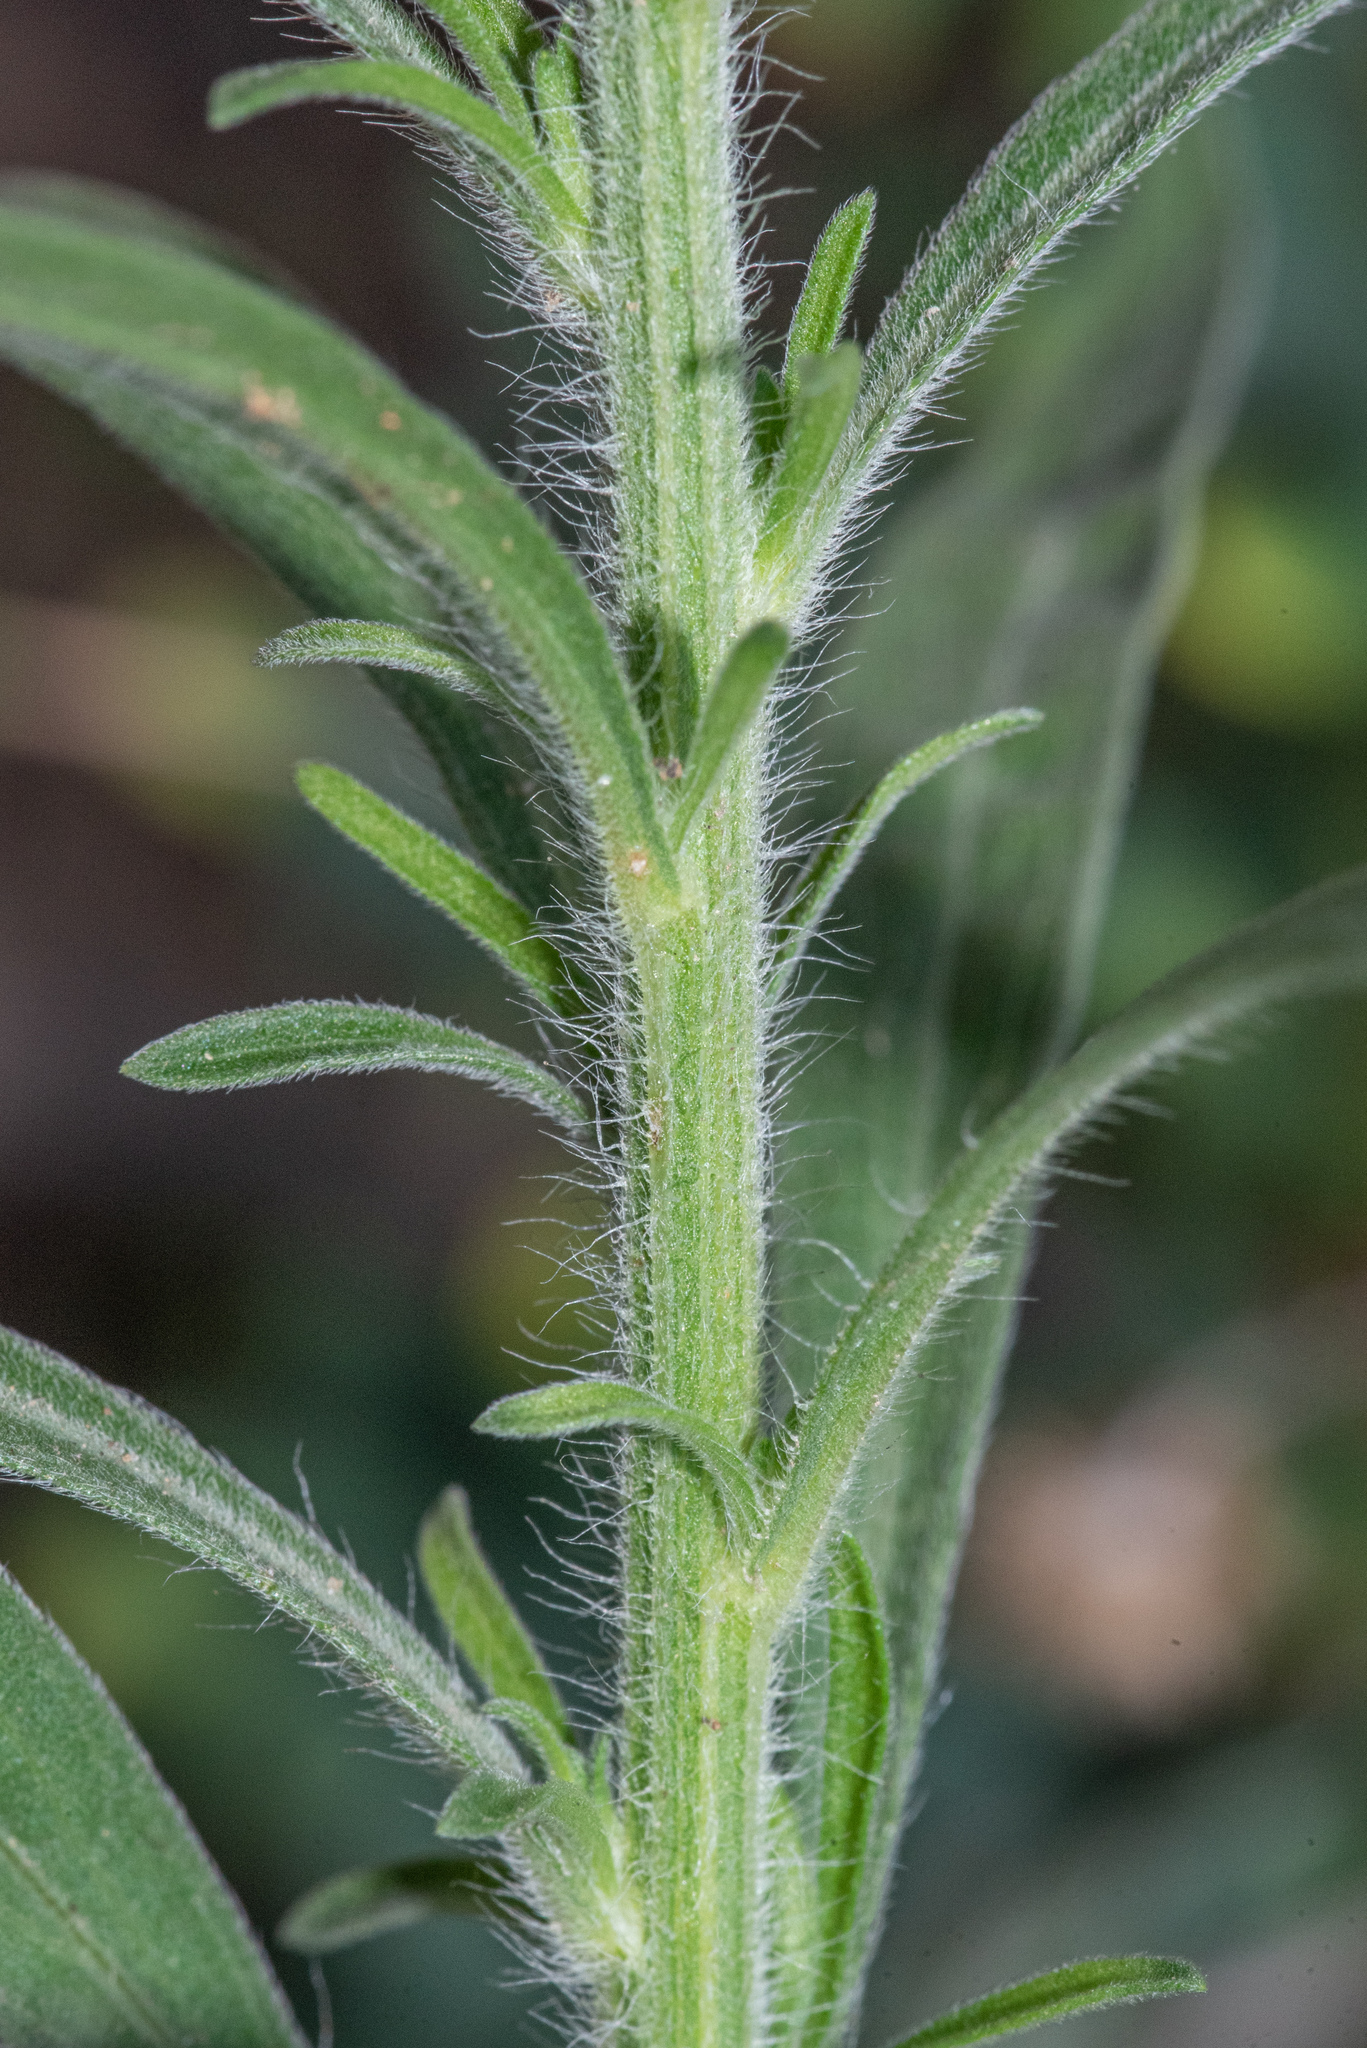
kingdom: Plantae
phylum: Tracheophyta
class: Magnoliopsida
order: Asterales
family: Asteraceae
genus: Erigeron
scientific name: Erigeron sumatrensis
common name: Daisy
